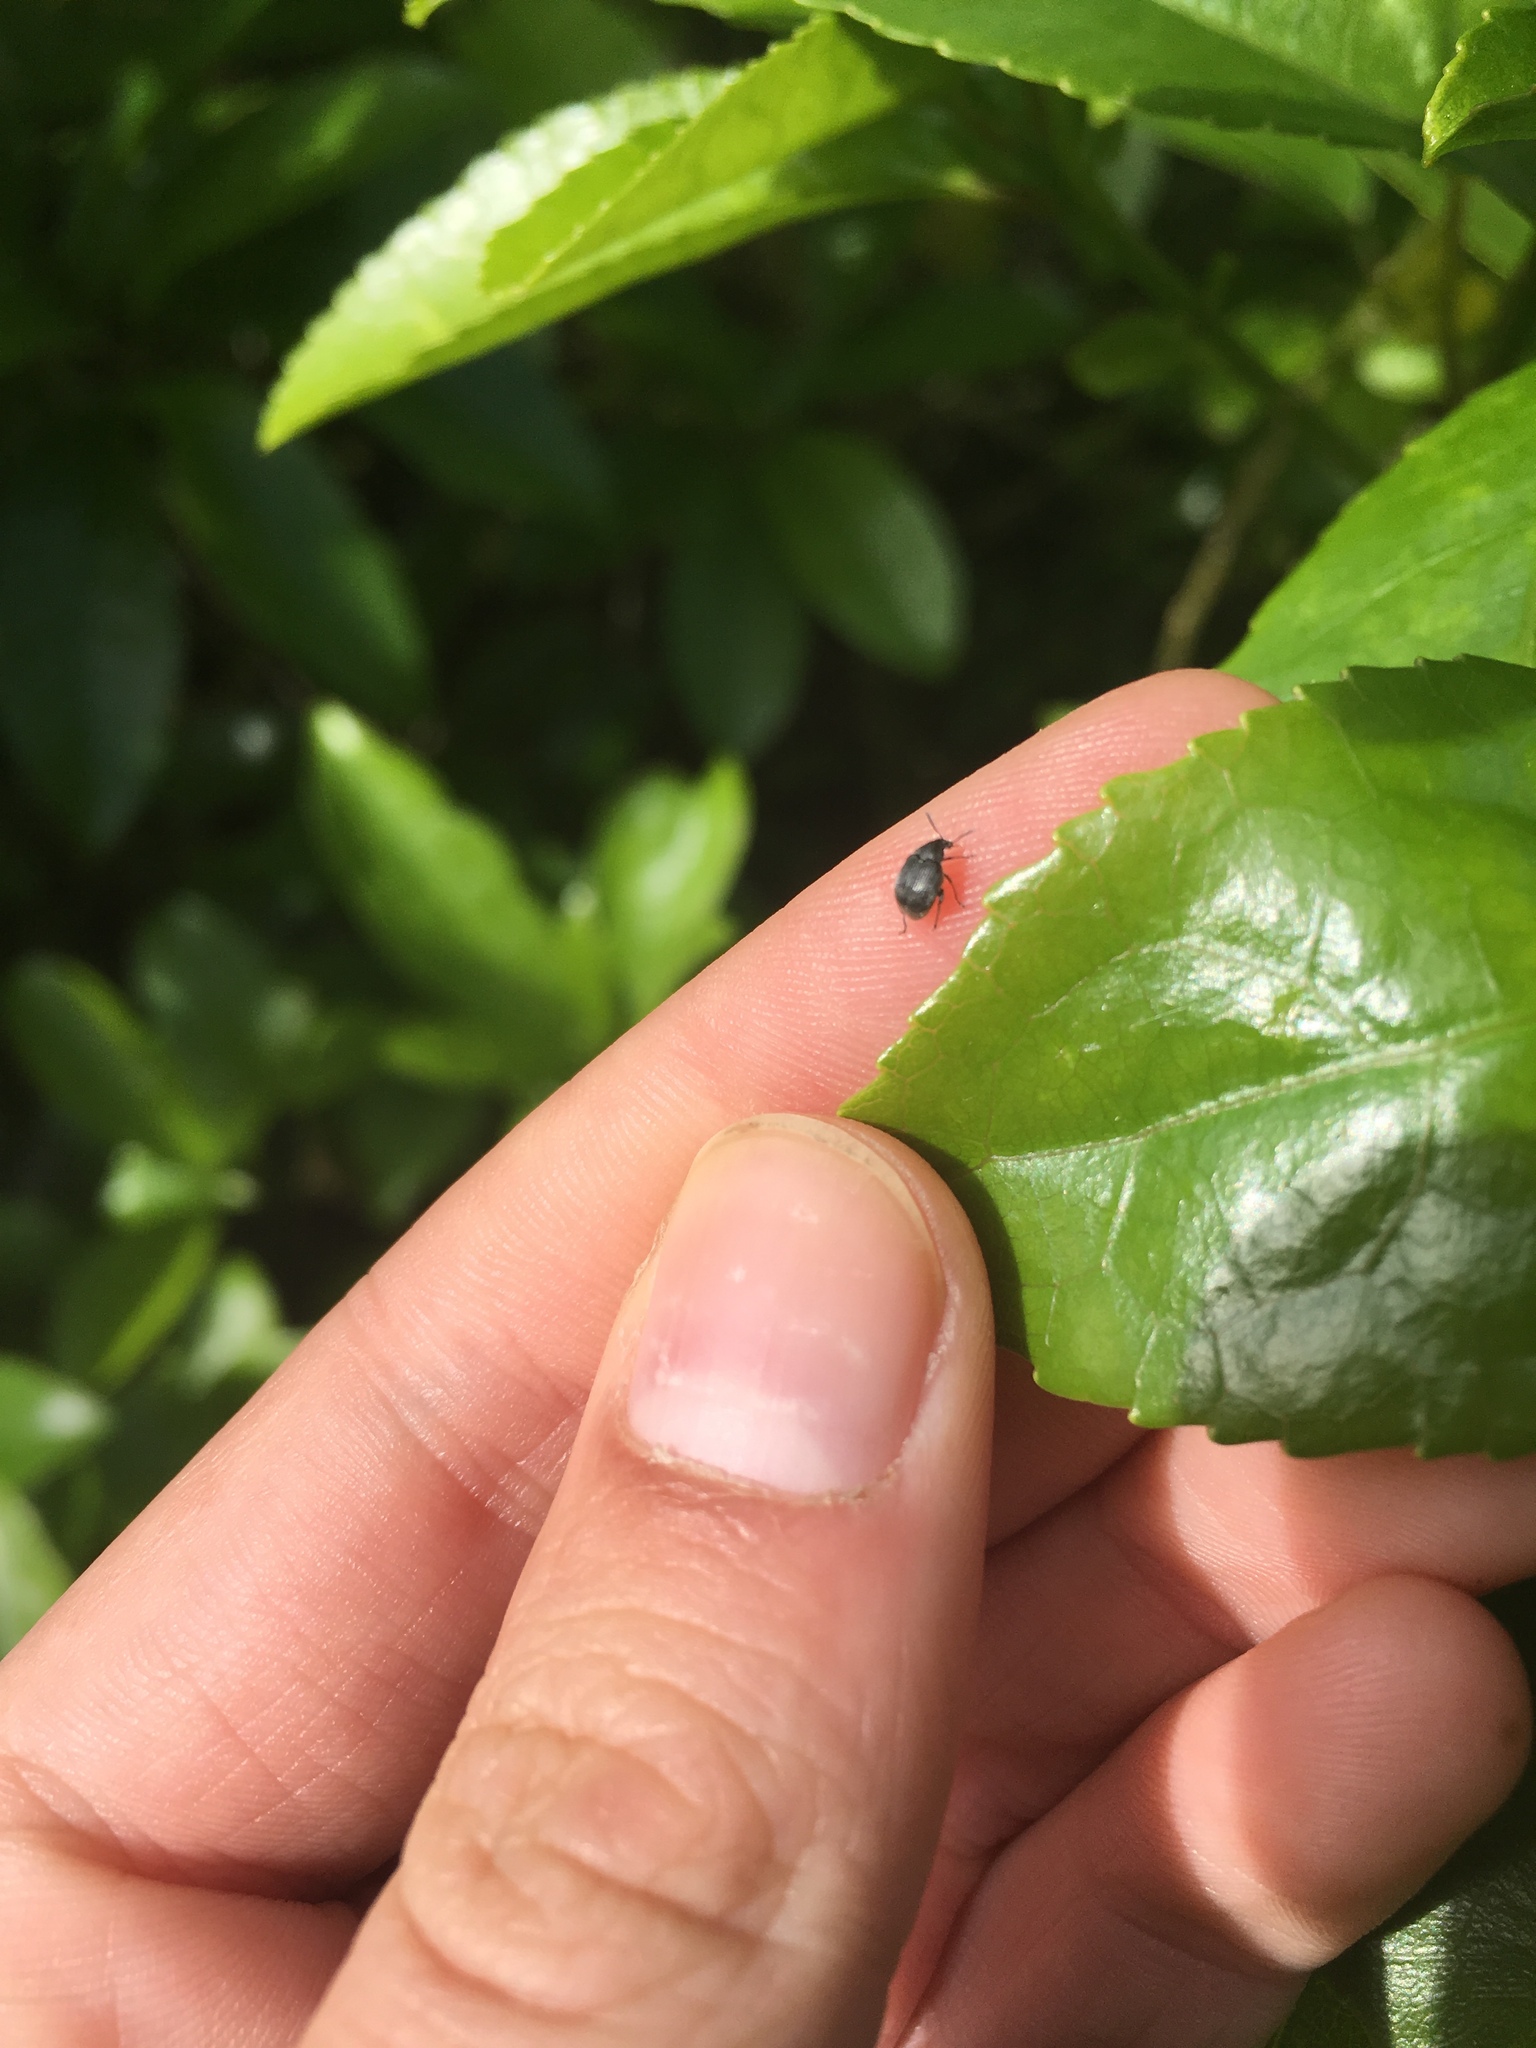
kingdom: Animalia
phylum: Arthropoda
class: Insecta
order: Coleoptera
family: Chrysomelidae
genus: Bruchidius
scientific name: Bruchidius villosus
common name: Scotch broom bruchid
